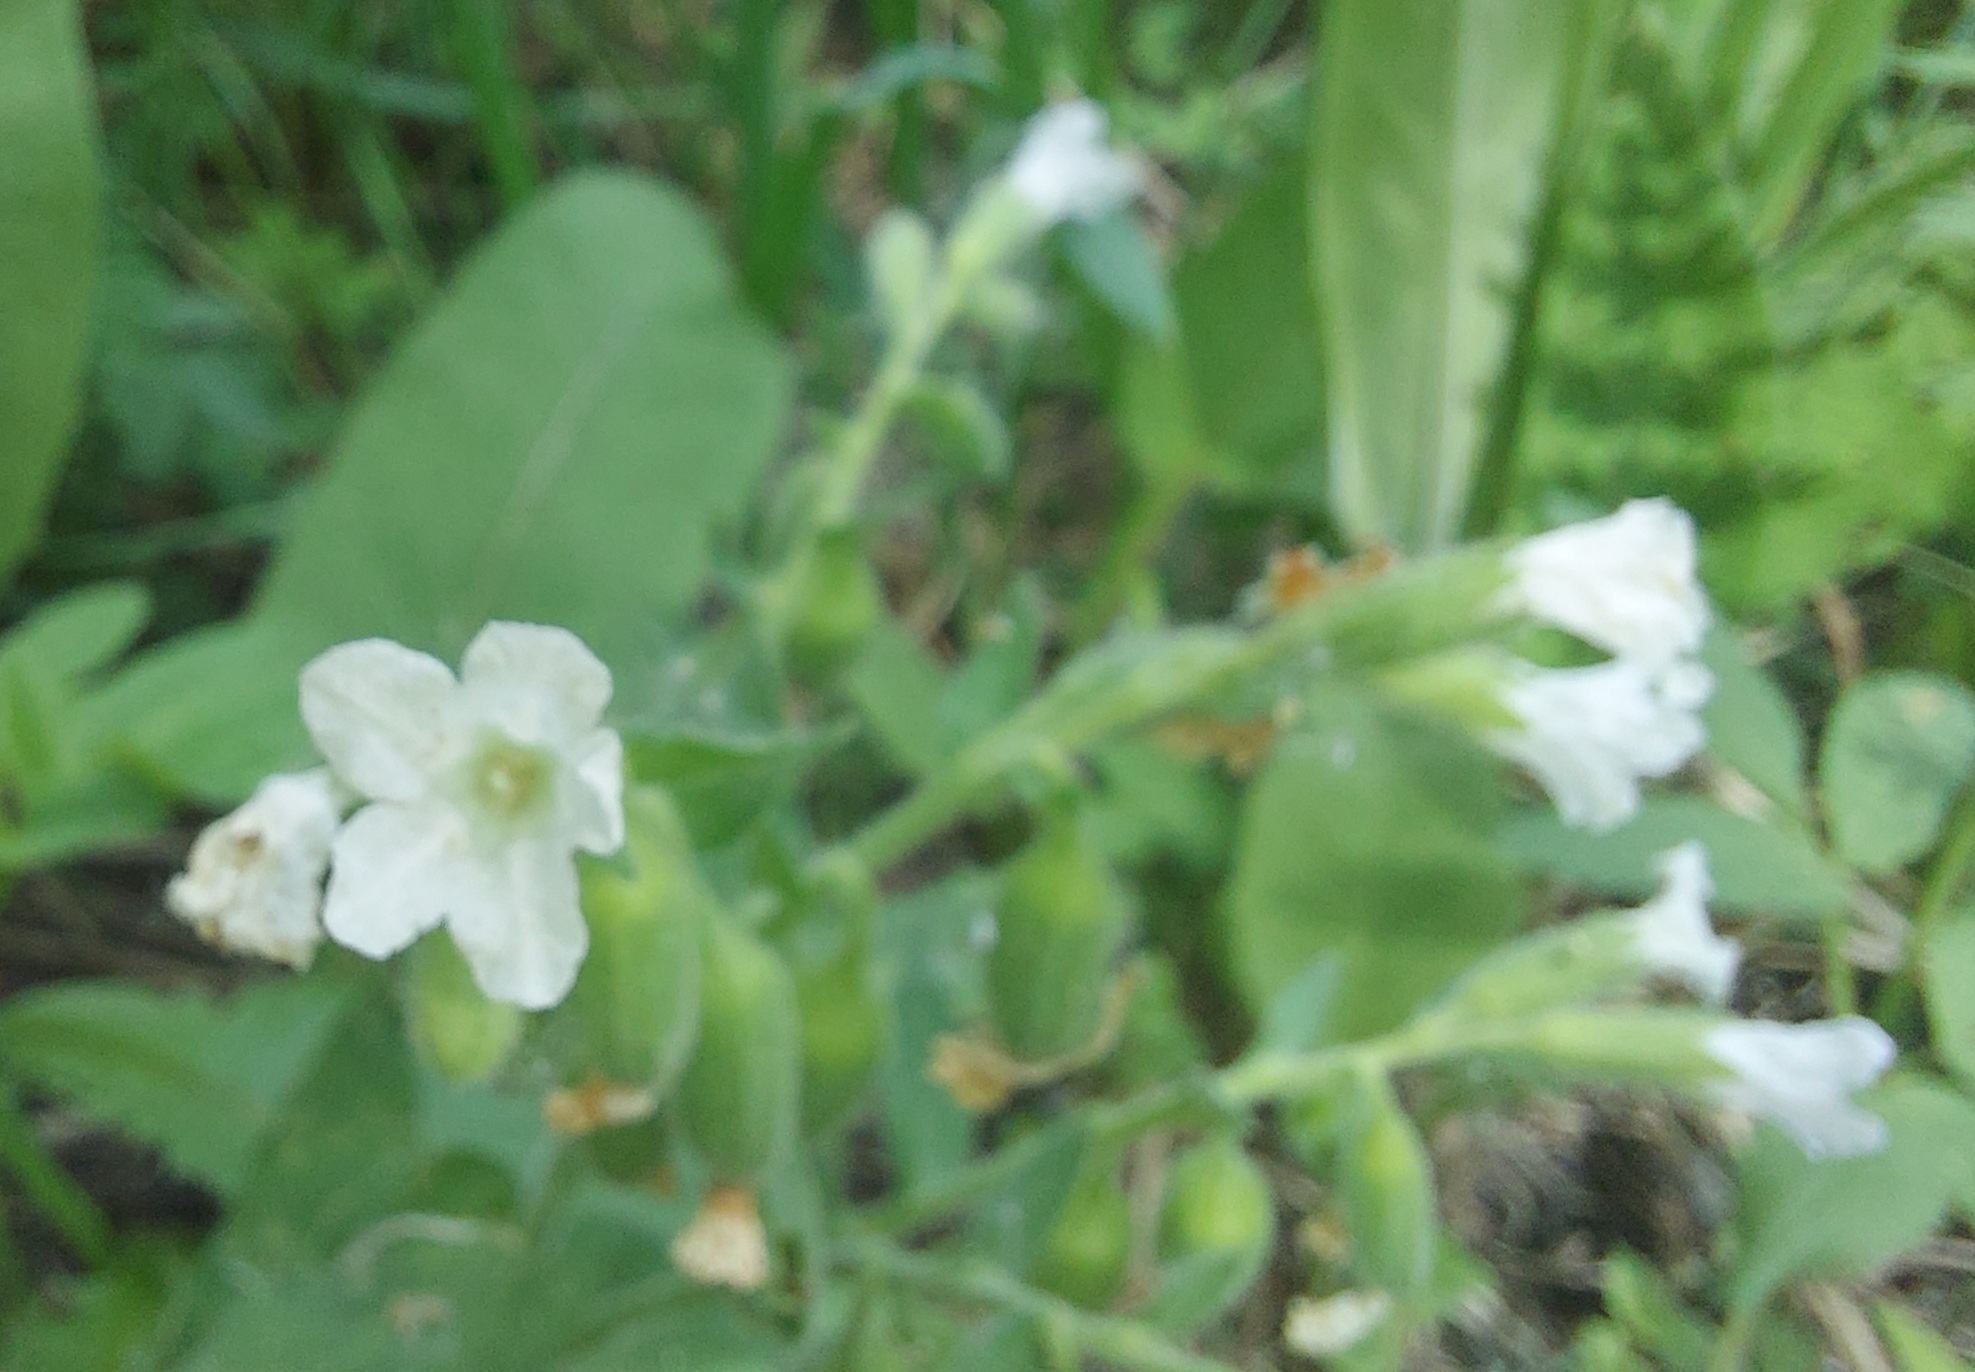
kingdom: Plantae
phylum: Tracheophyta
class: Magnoliopsida
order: Boraginales
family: Boraginaceae
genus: Pulmonaria
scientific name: Pulmonaria mollis
